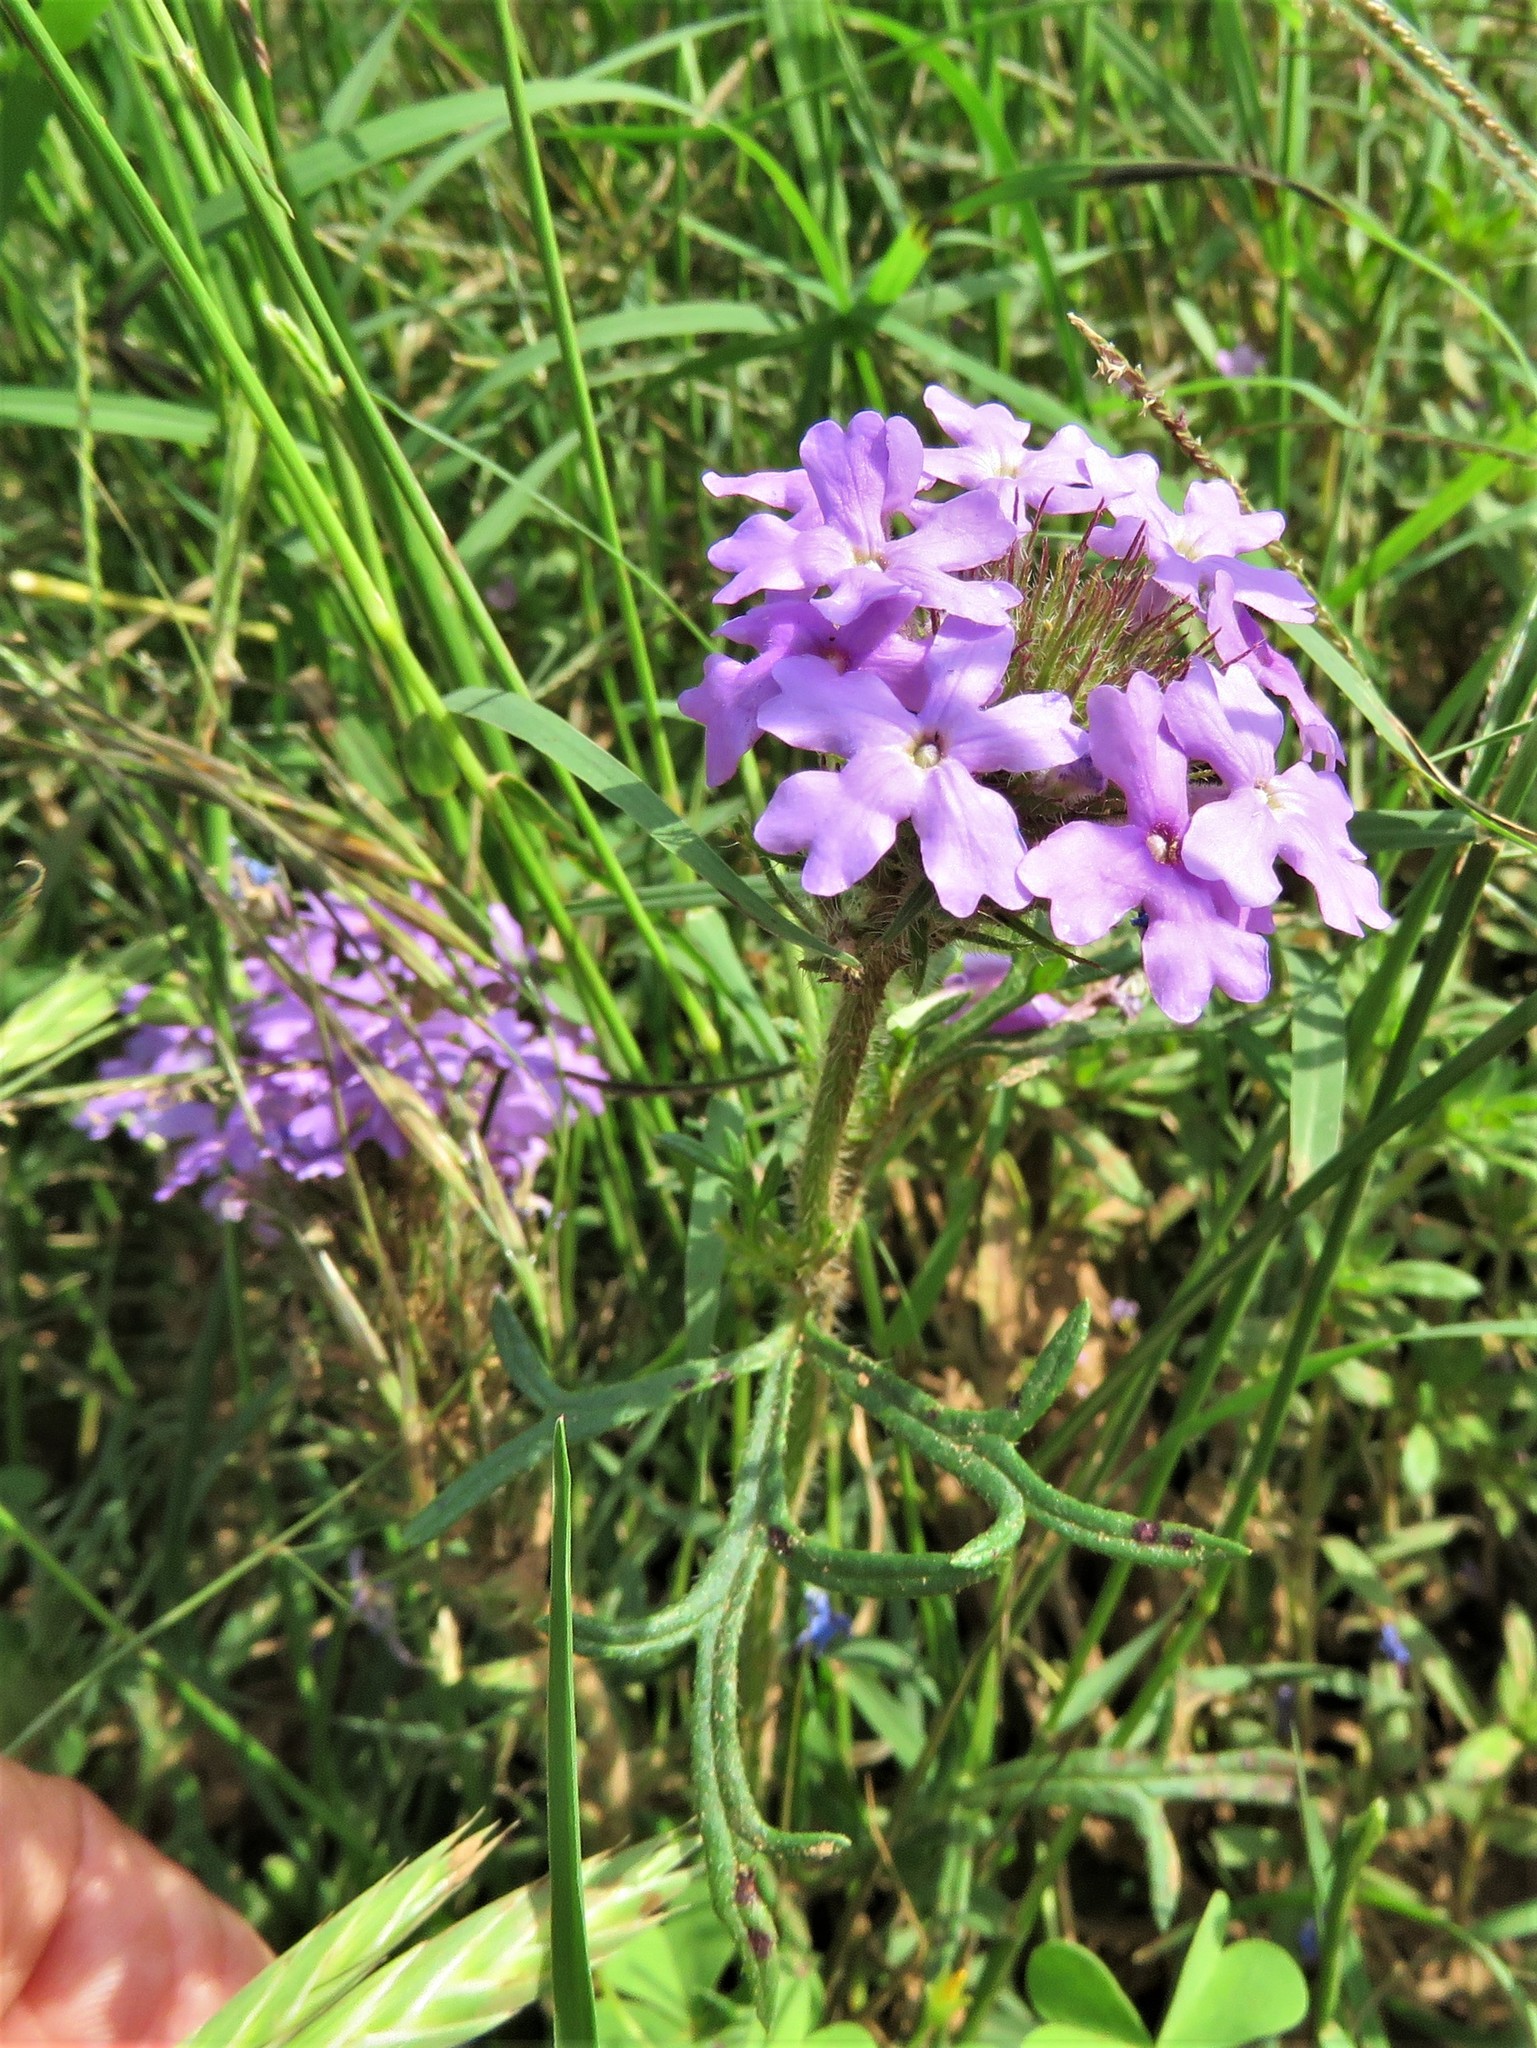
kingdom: Plantae
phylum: Tracheophyta
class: Magnoliopsida
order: Lamiales
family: Verbenaceae
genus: Verbena
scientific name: Verbena bipinnatifida
